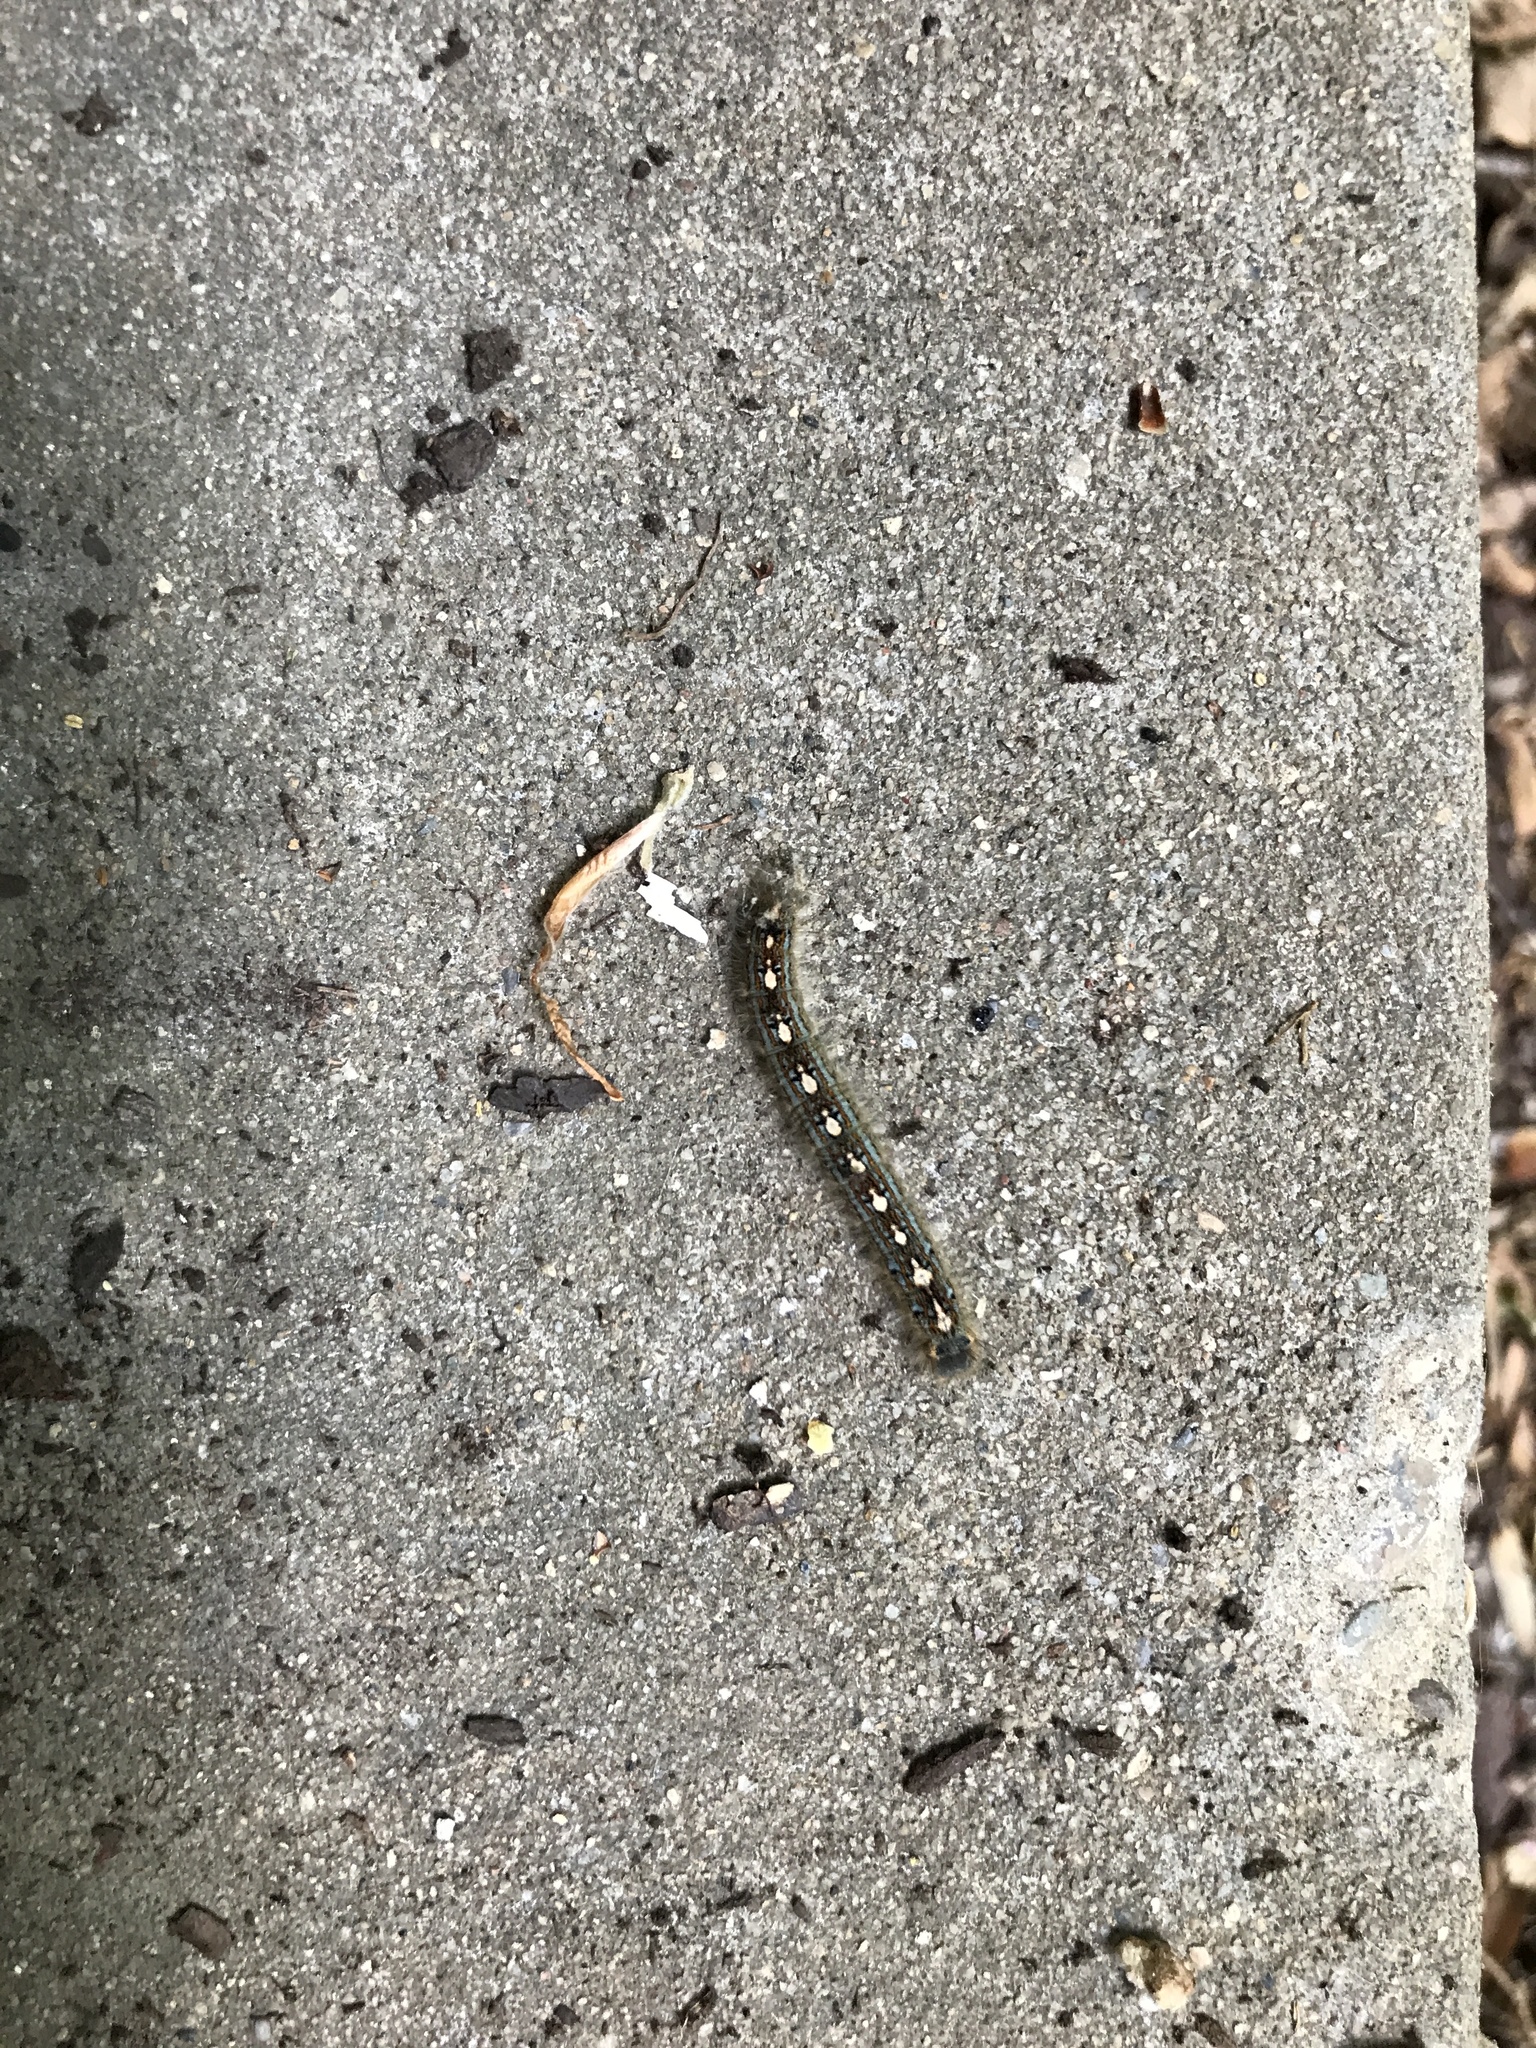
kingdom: Animalia
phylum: Arthropoda
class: Insecta
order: Lepidoptera
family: Lasiocampidae
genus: Malacosoma
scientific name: Malacosoma disstria
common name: Forest tent caterpillar
